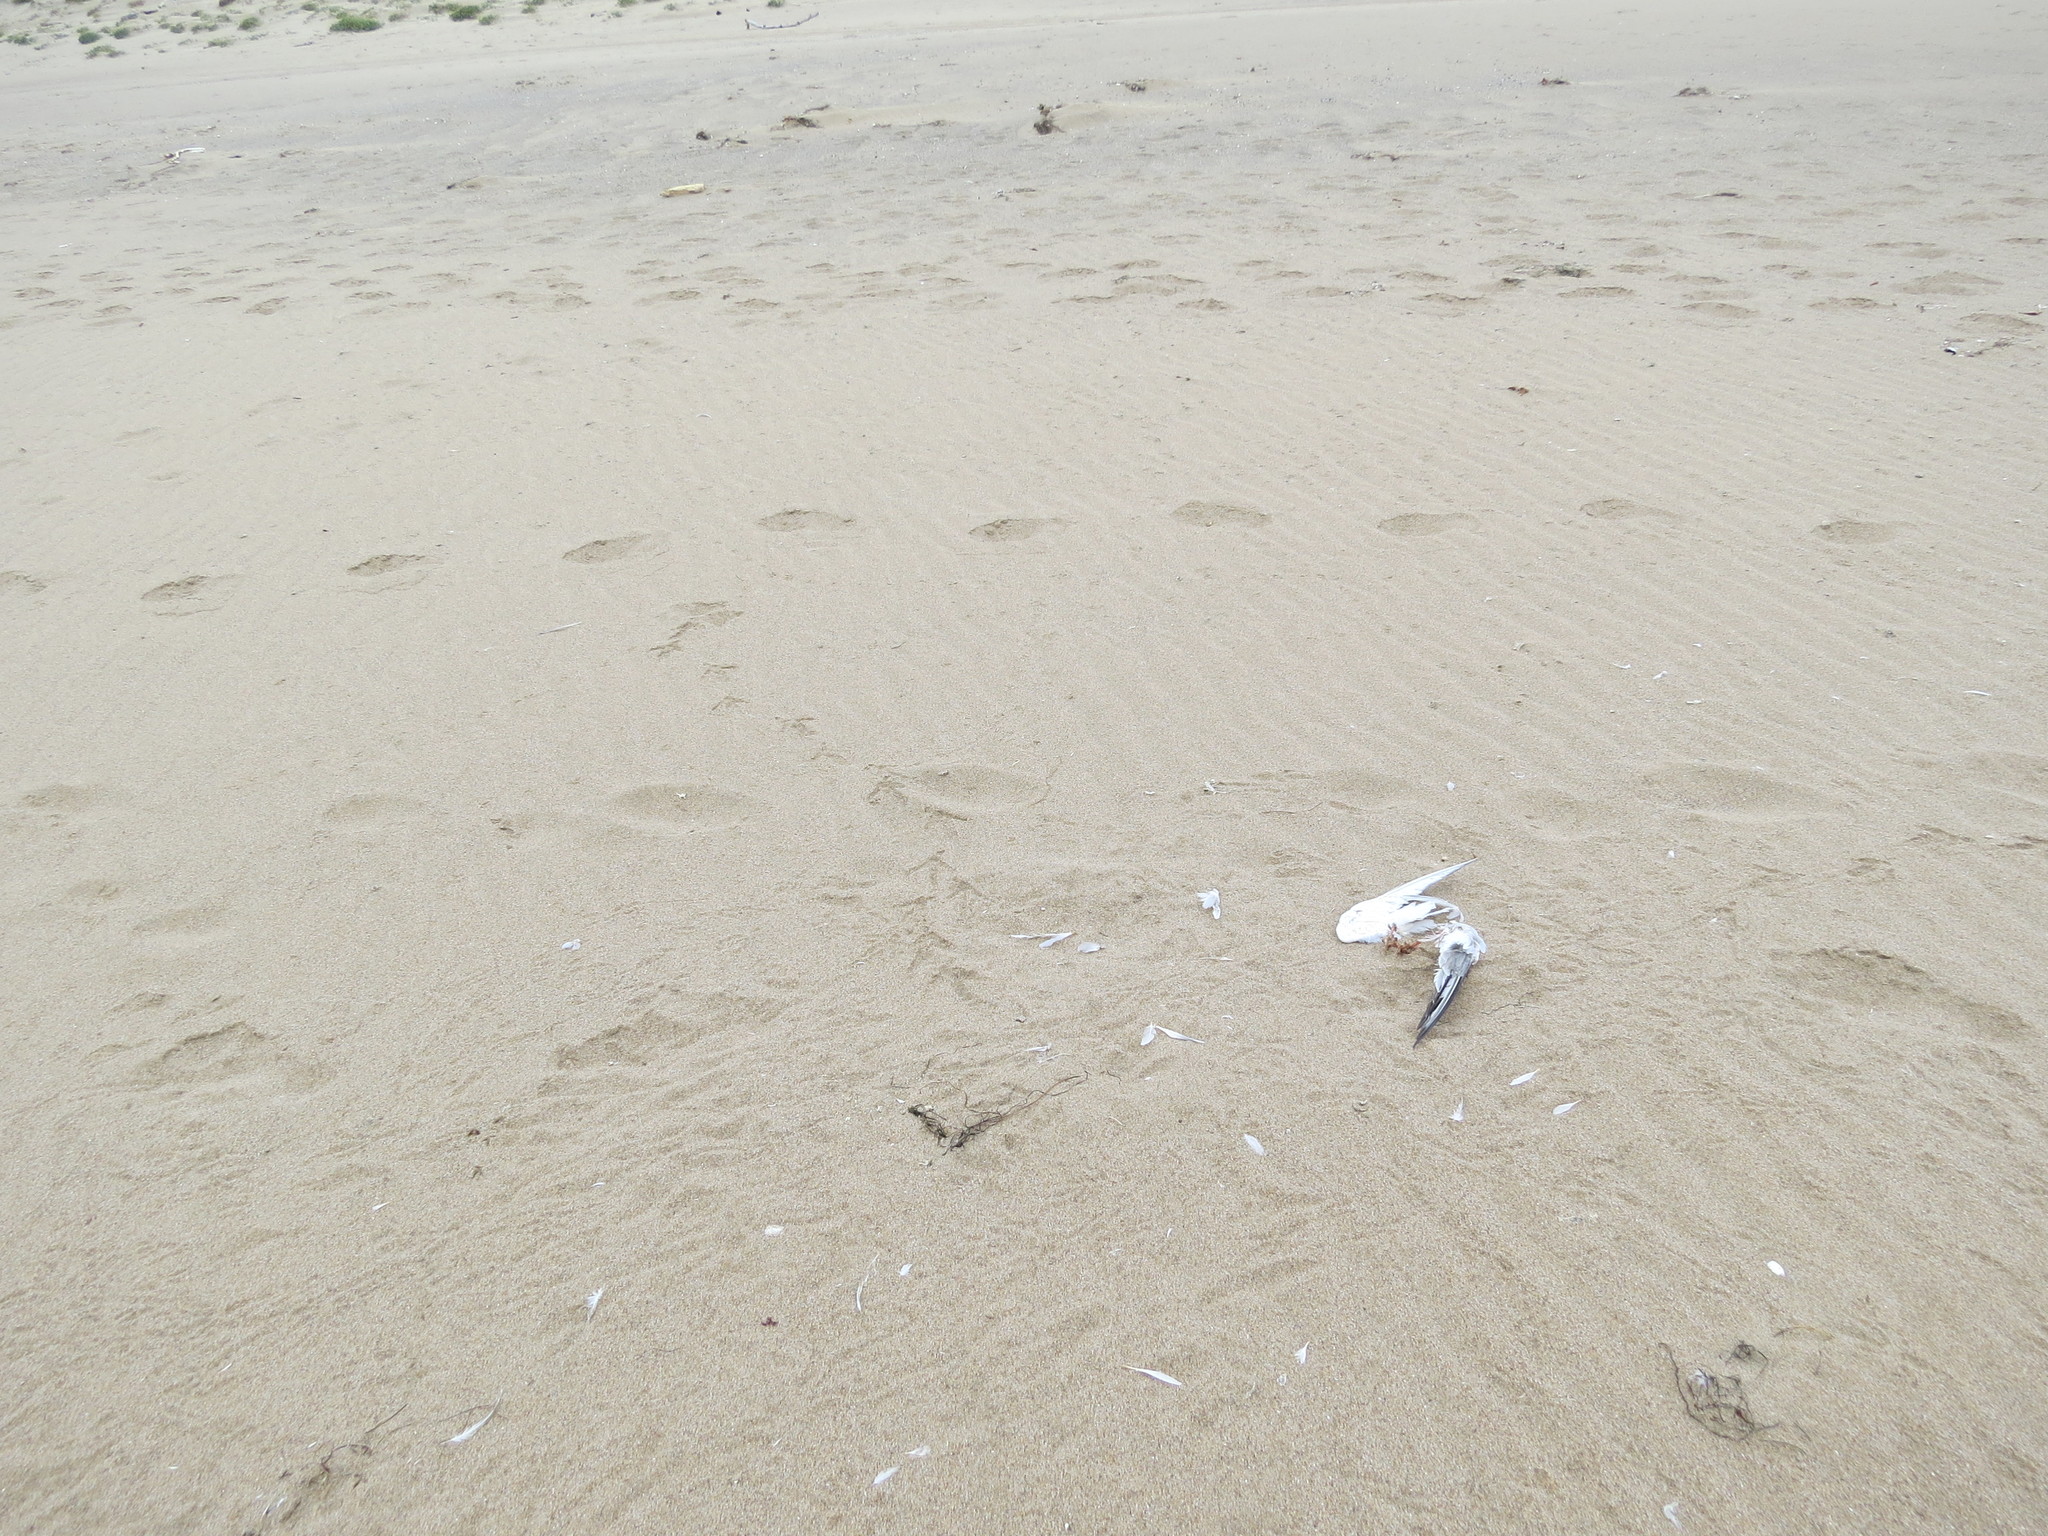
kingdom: Animalia
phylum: Chordata
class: Aves
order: Falconiformes
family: Falconidae
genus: Falco
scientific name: Falco peregrinus
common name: Peregrine falcon
